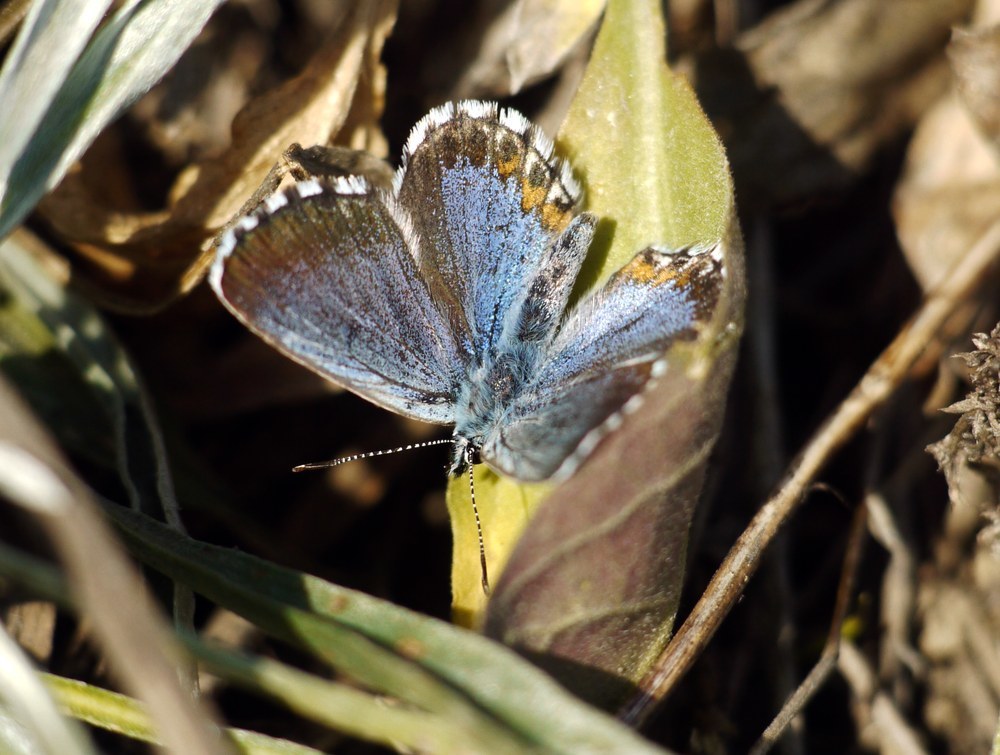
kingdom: Animalia
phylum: Arthropoda
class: Insecta
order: Lepidoptera
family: Lycaenidae
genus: Pseudophilotes
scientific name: Pseudophilotes bavius
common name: Bavius blue
